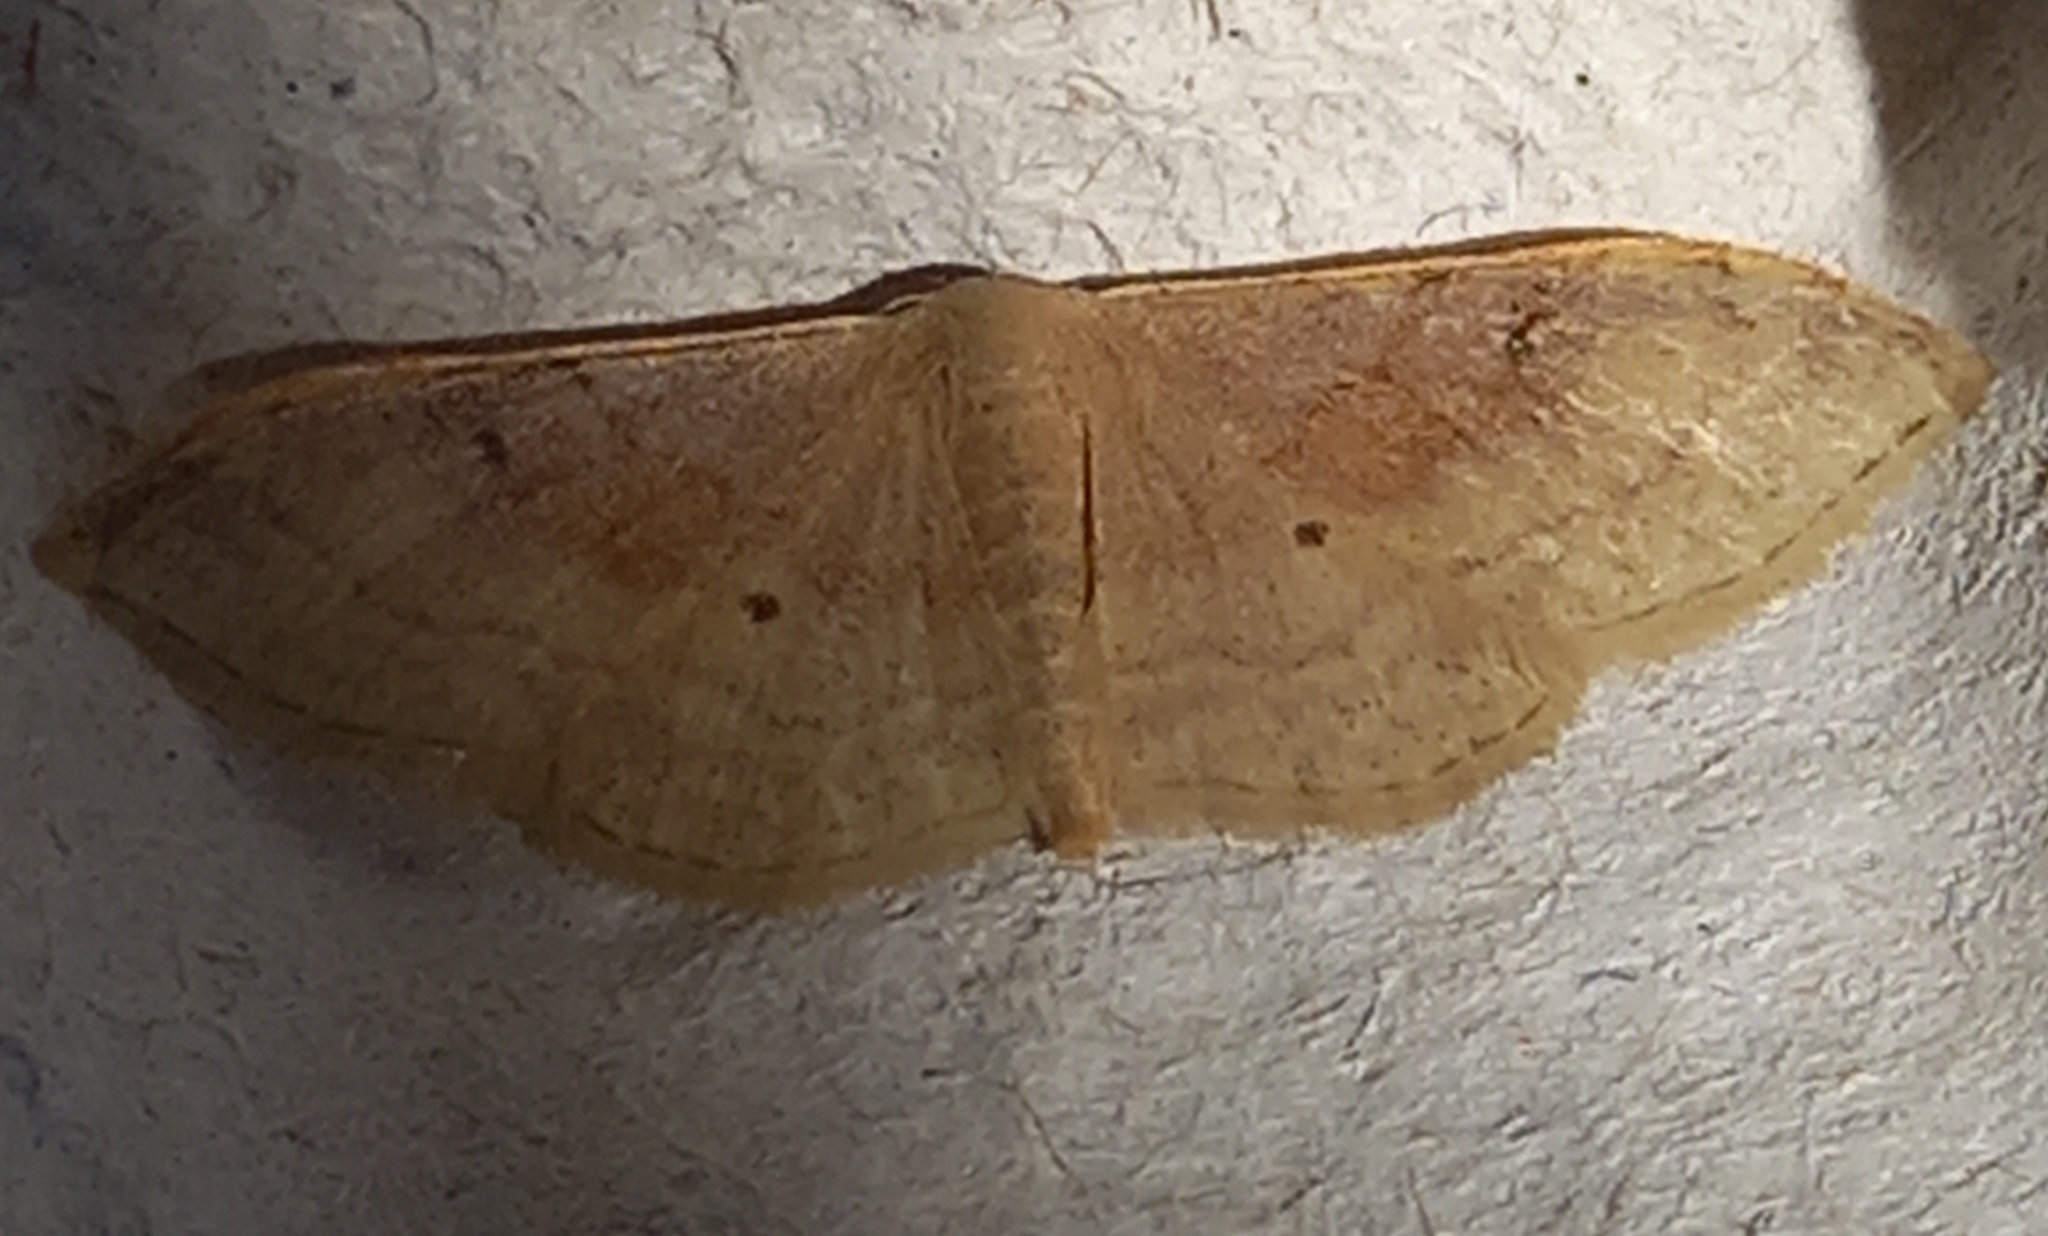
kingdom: Animalia
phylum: Arthropoda
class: Insecta
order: Lepidoptera
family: Geometridae
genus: Idaea
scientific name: Idaea degeneraria
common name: Portland ribbon wave
